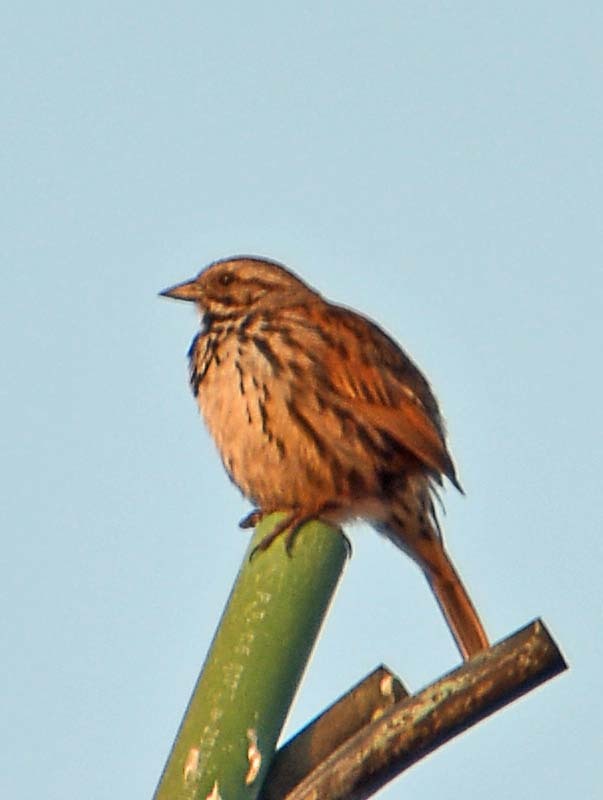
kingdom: Animalia
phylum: Chordata
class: Aves
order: Passeriformes
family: Passerellidae
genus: Melospiza
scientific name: Melospiza melodia
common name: Song sparrow
